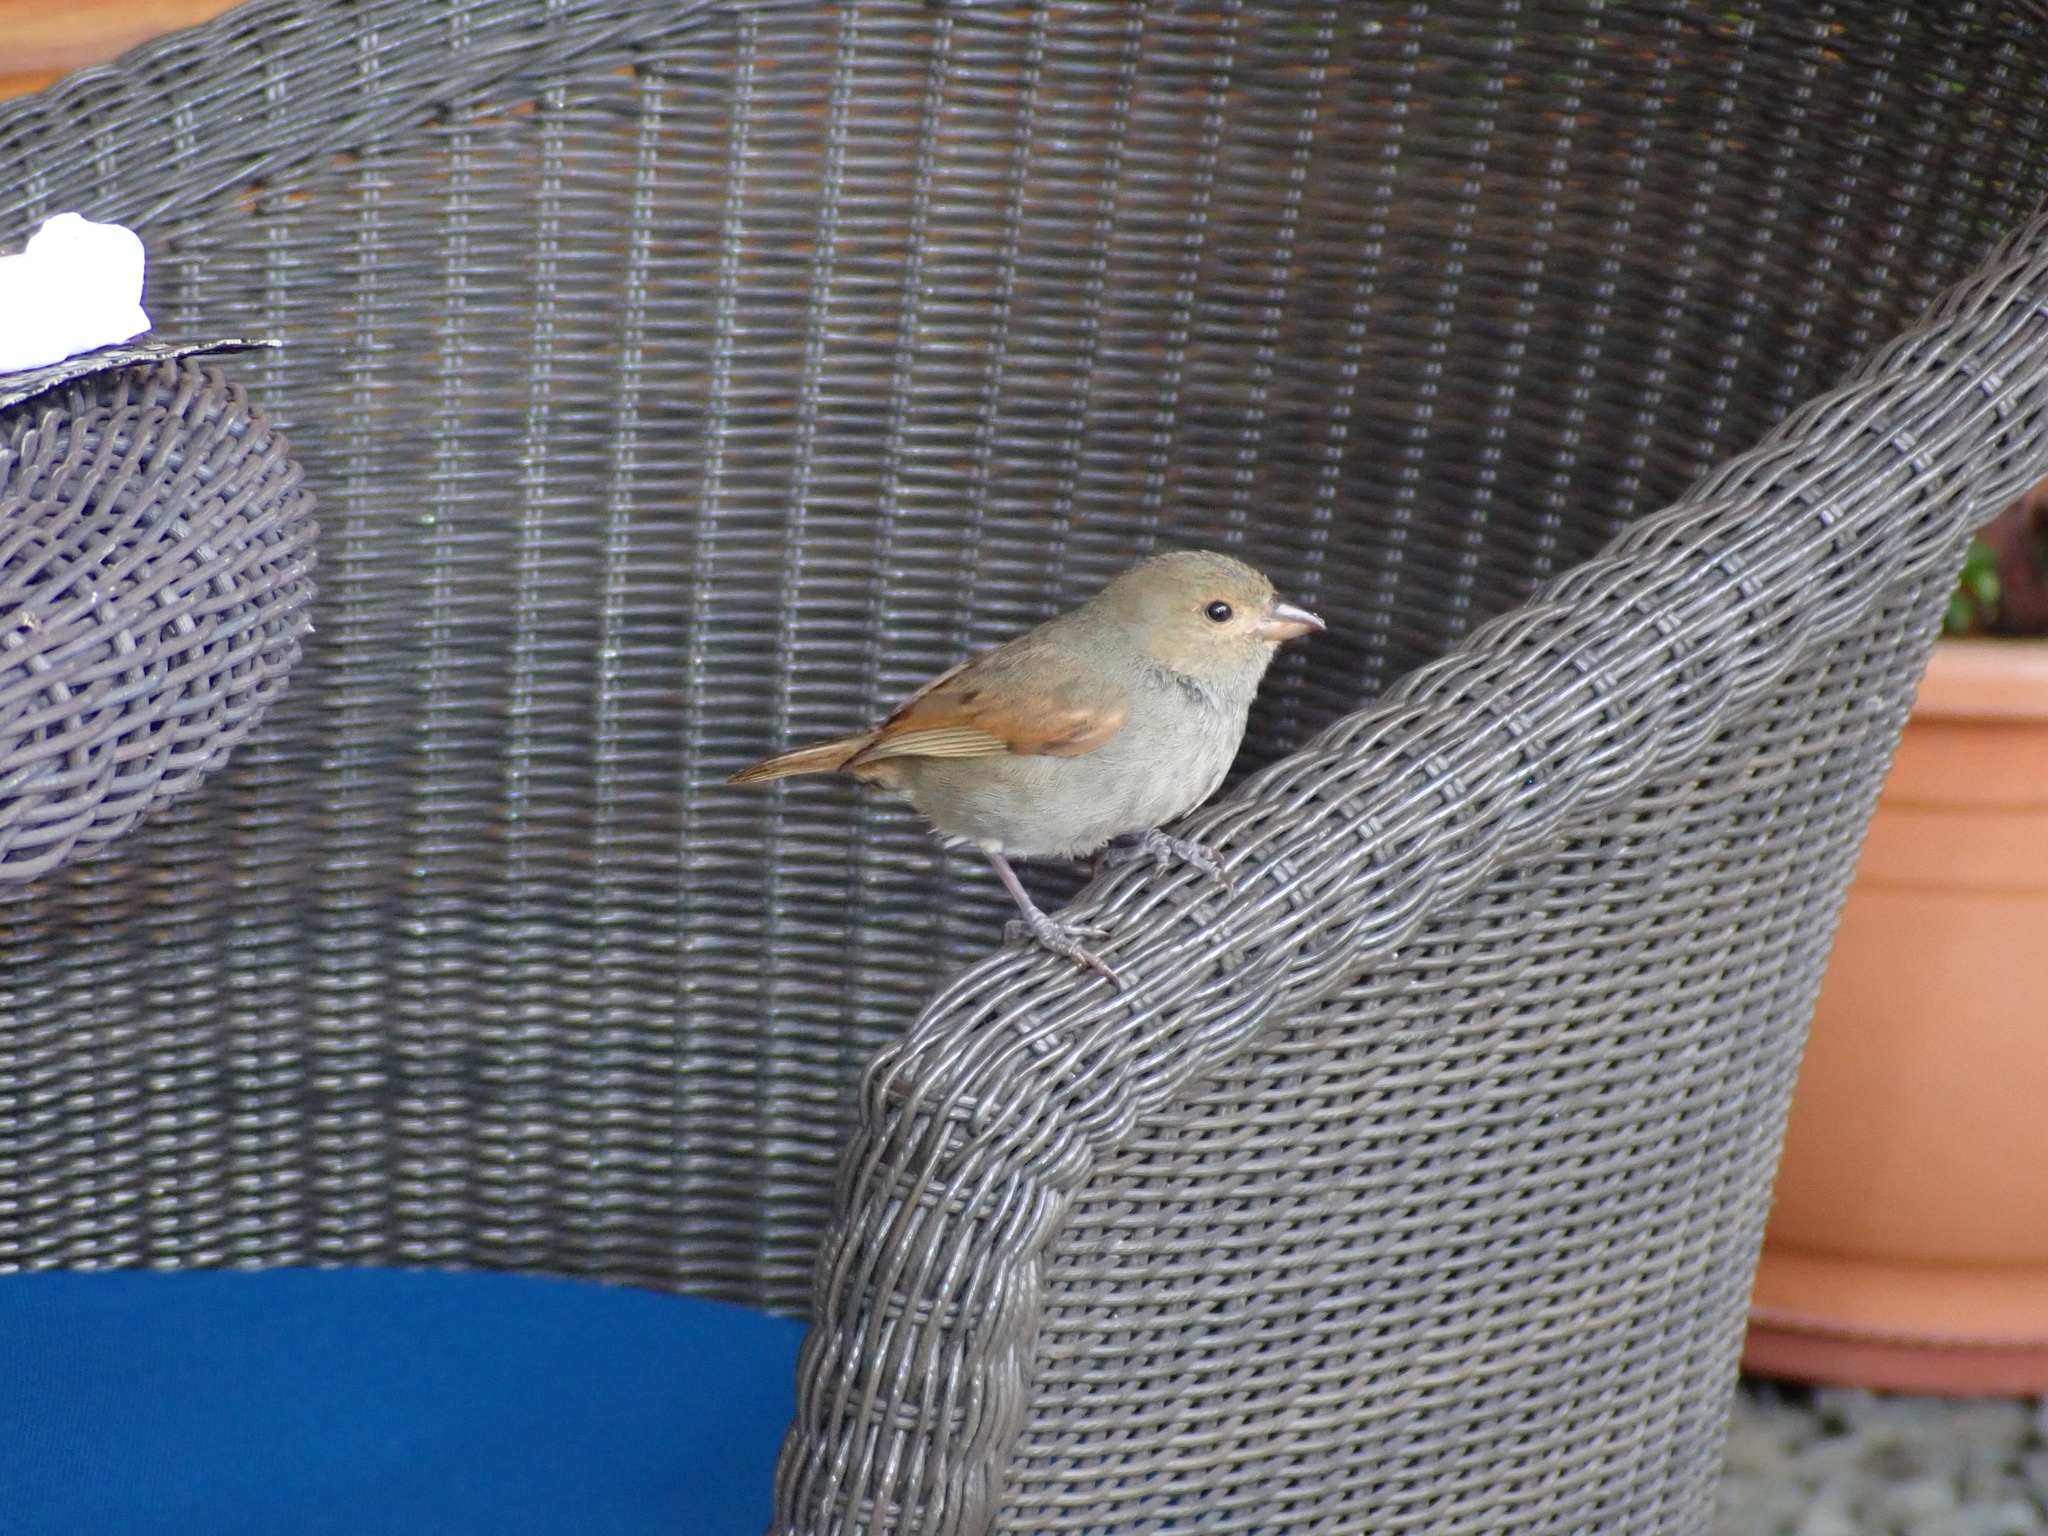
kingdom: Animalia
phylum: Chordata
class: Aves
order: Passeriformes
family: Thraupidae
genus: Loxigilla
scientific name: Loxigilla noctis
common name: Lesser antillean bullfinch
